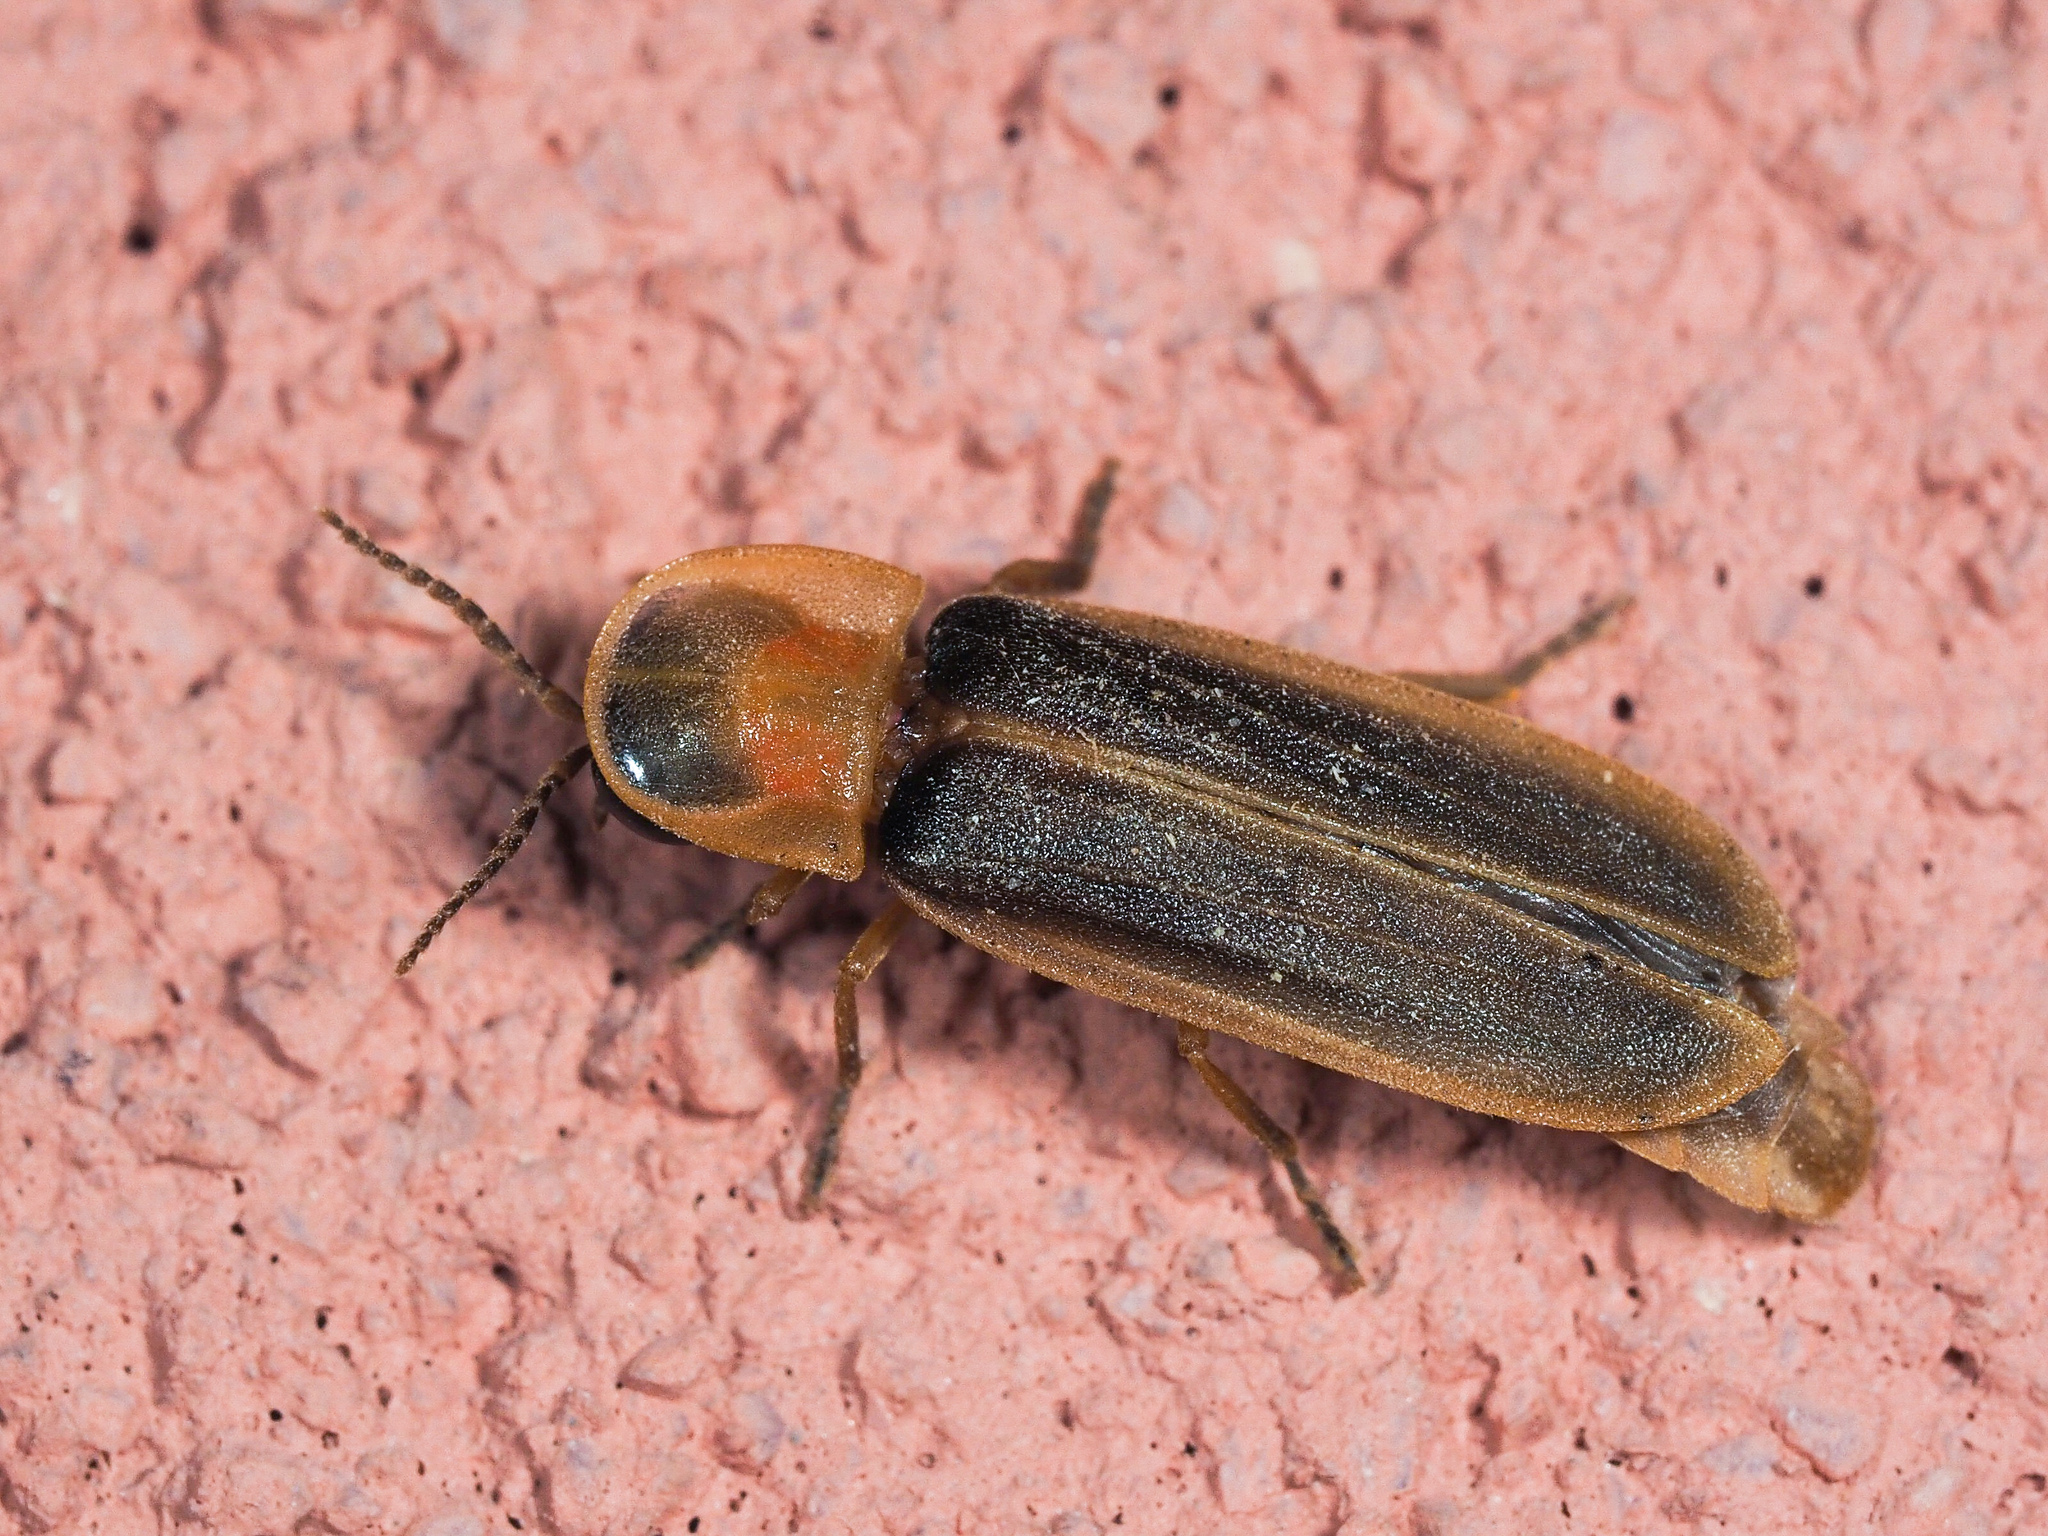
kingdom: Animalia
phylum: Arthropoda
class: Insecta
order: Coleoptera
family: Lampyridae
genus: Lampyris
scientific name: Lampyris ambigena
